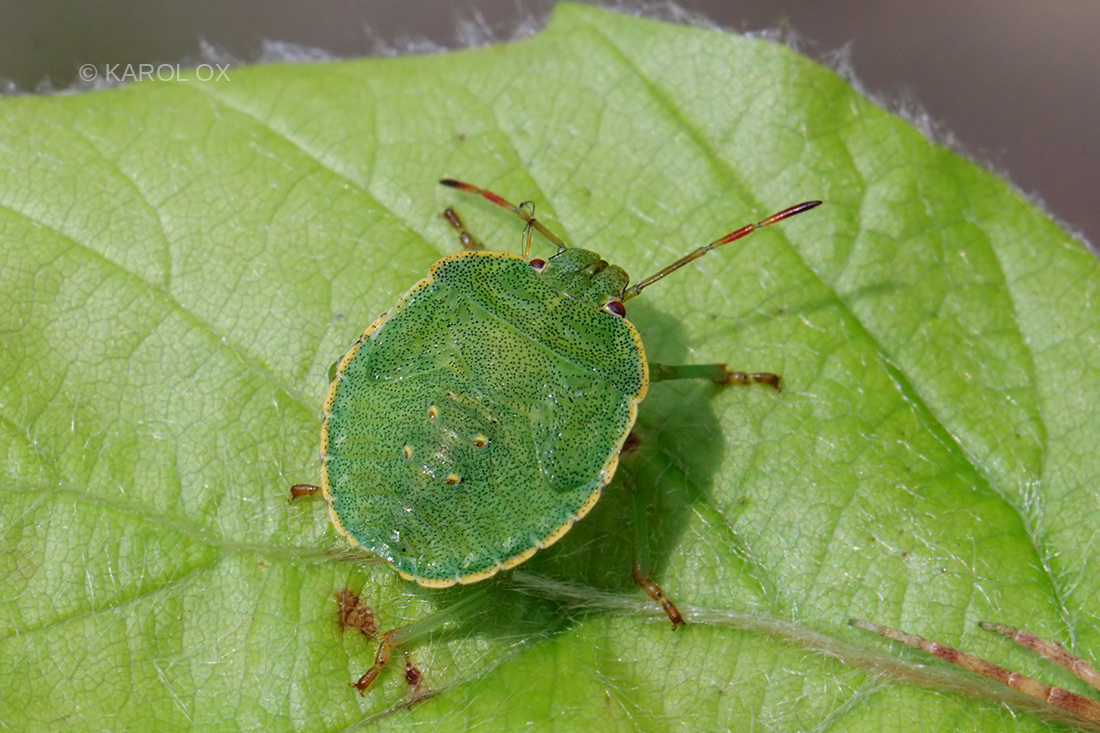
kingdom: Animalia
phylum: Arthropoda
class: Insecta
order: Hemiptera
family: Pentatomidae
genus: Palomena
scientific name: Palomena prasina
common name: Green shieldbug
